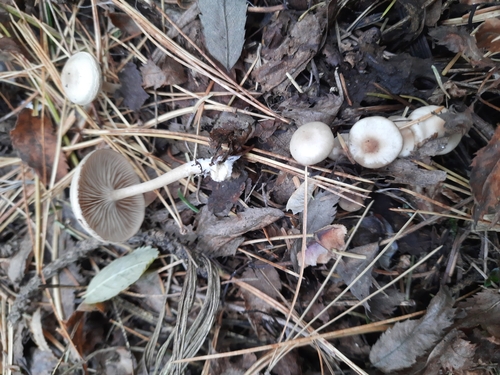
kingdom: Fungi
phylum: Basidiomycota
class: Agaricomycetes
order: Agaricales
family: Tricholomataceae
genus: Clitocybe
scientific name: Clitocybe
